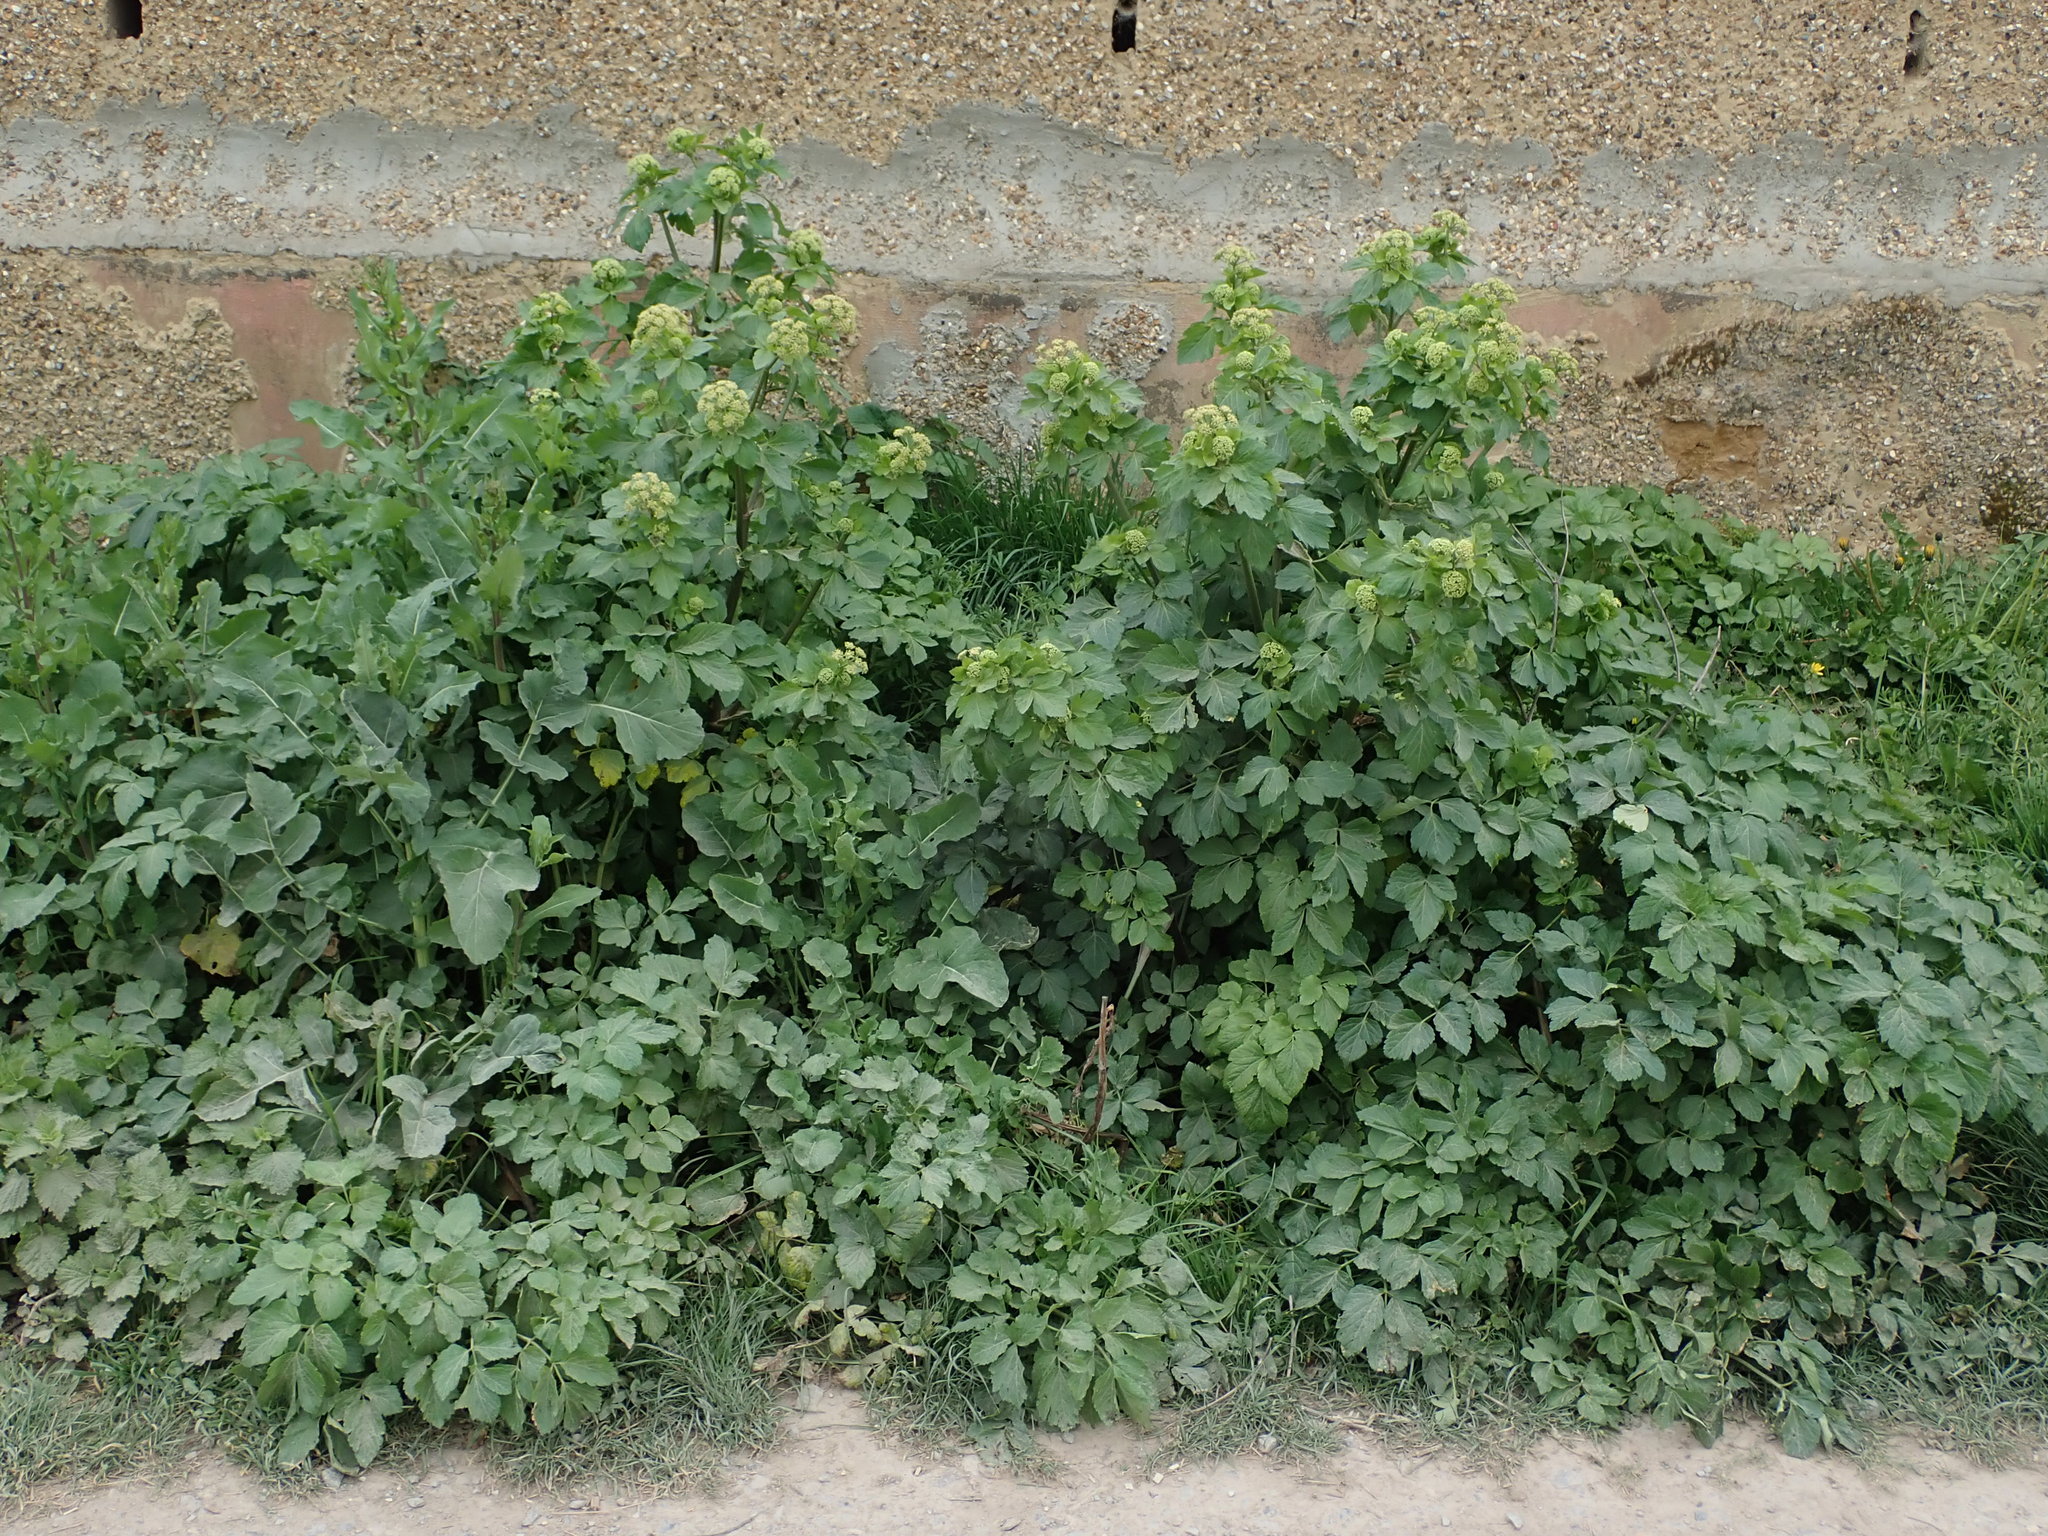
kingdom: Plantae
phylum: Tracheophyta
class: Magnoliopsida
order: Apiales
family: Apiaceae
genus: Smyrnium
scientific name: Smyrnium olusatrum
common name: Alexanders
